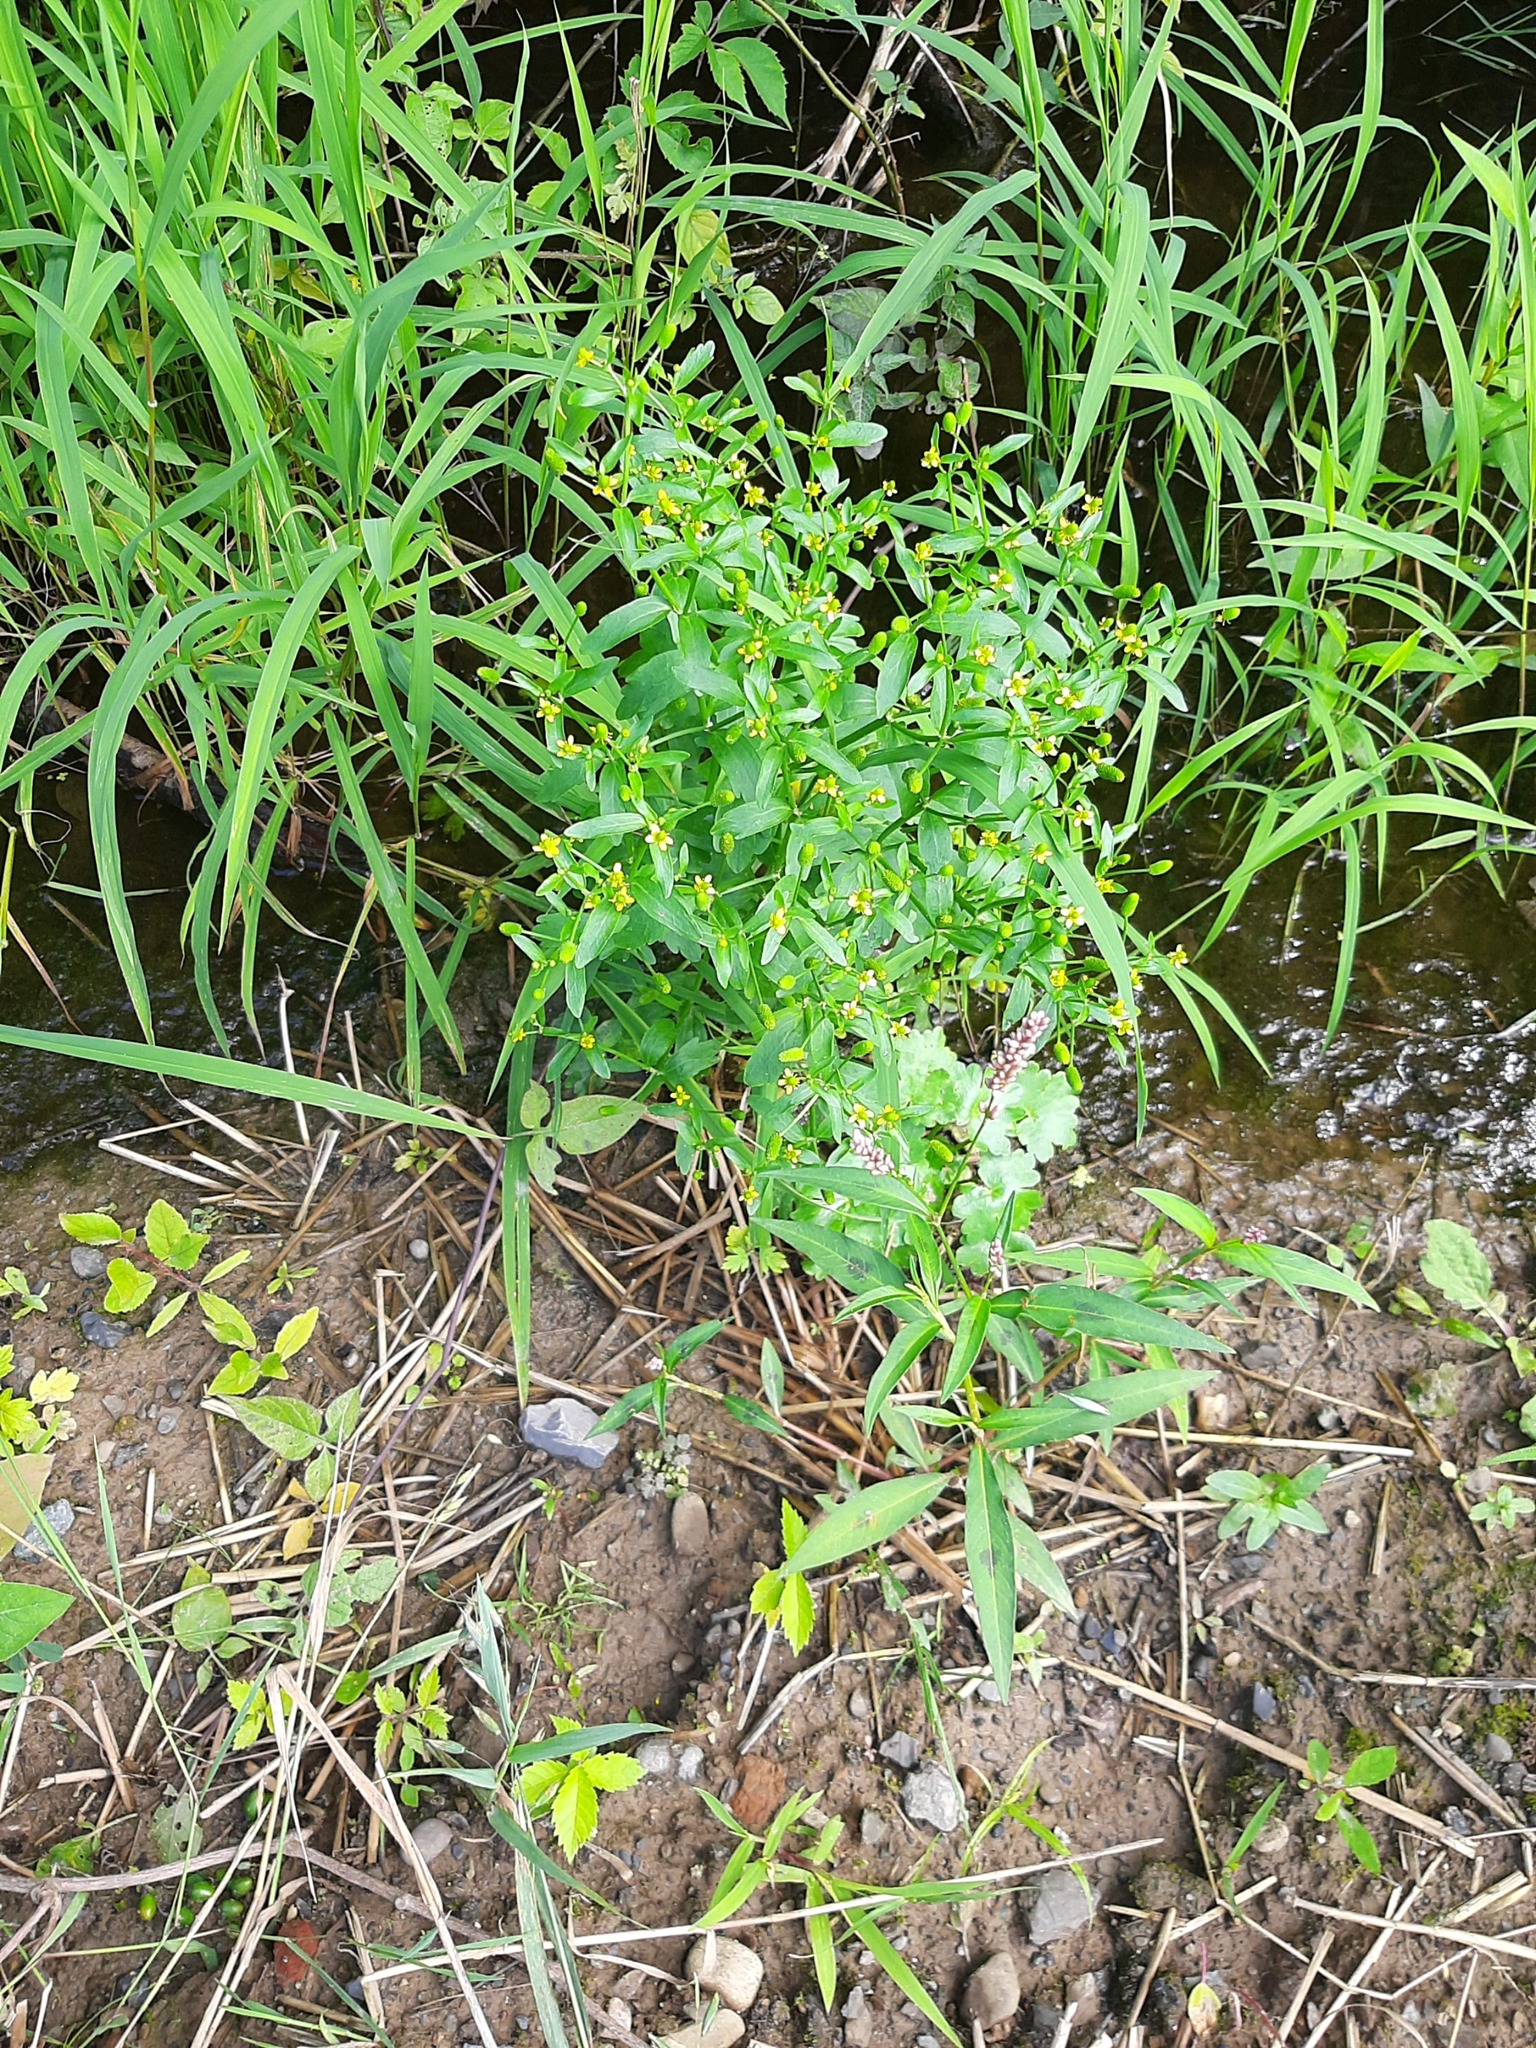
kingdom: Plantae
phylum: Tracheophyta
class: Magnoliopsida
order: Ranunculales
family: Ranunculaceae
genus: Ranunculus
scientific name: Ranunculus sceleratus
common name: Celery-leaved buttercup
